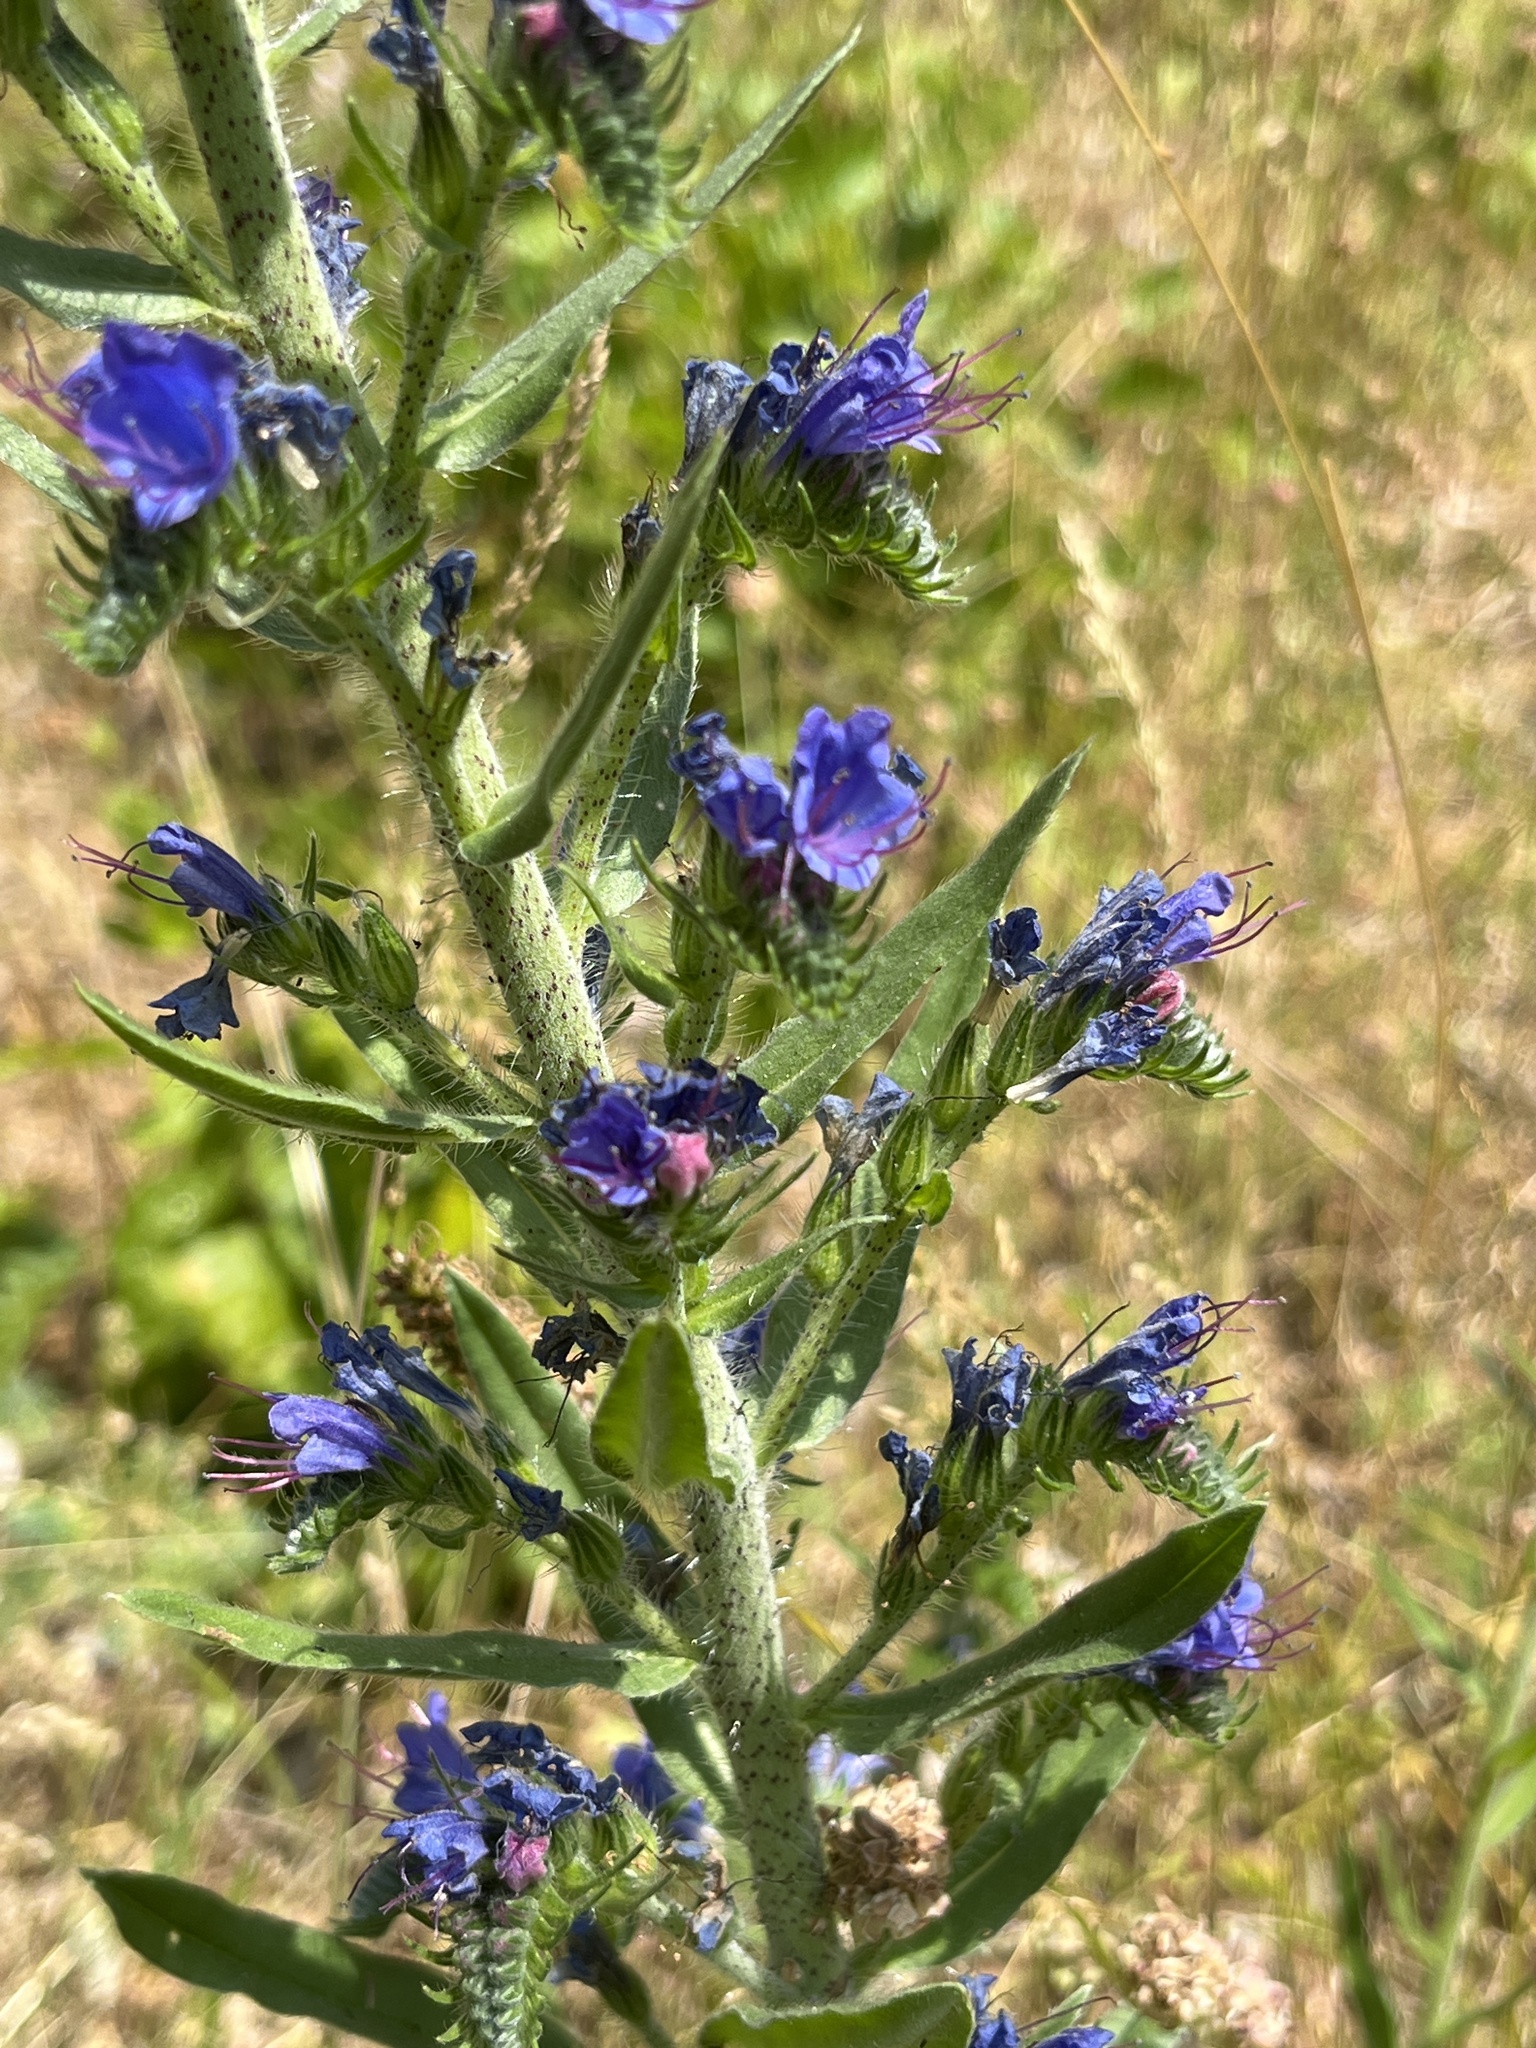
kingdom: Plantae
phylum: Tracheophyta
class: Magnoliopsida
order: Boraginales
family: Boraginaceae
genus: Echium
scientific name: Echium vulgare
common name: Common viper's bugloss
